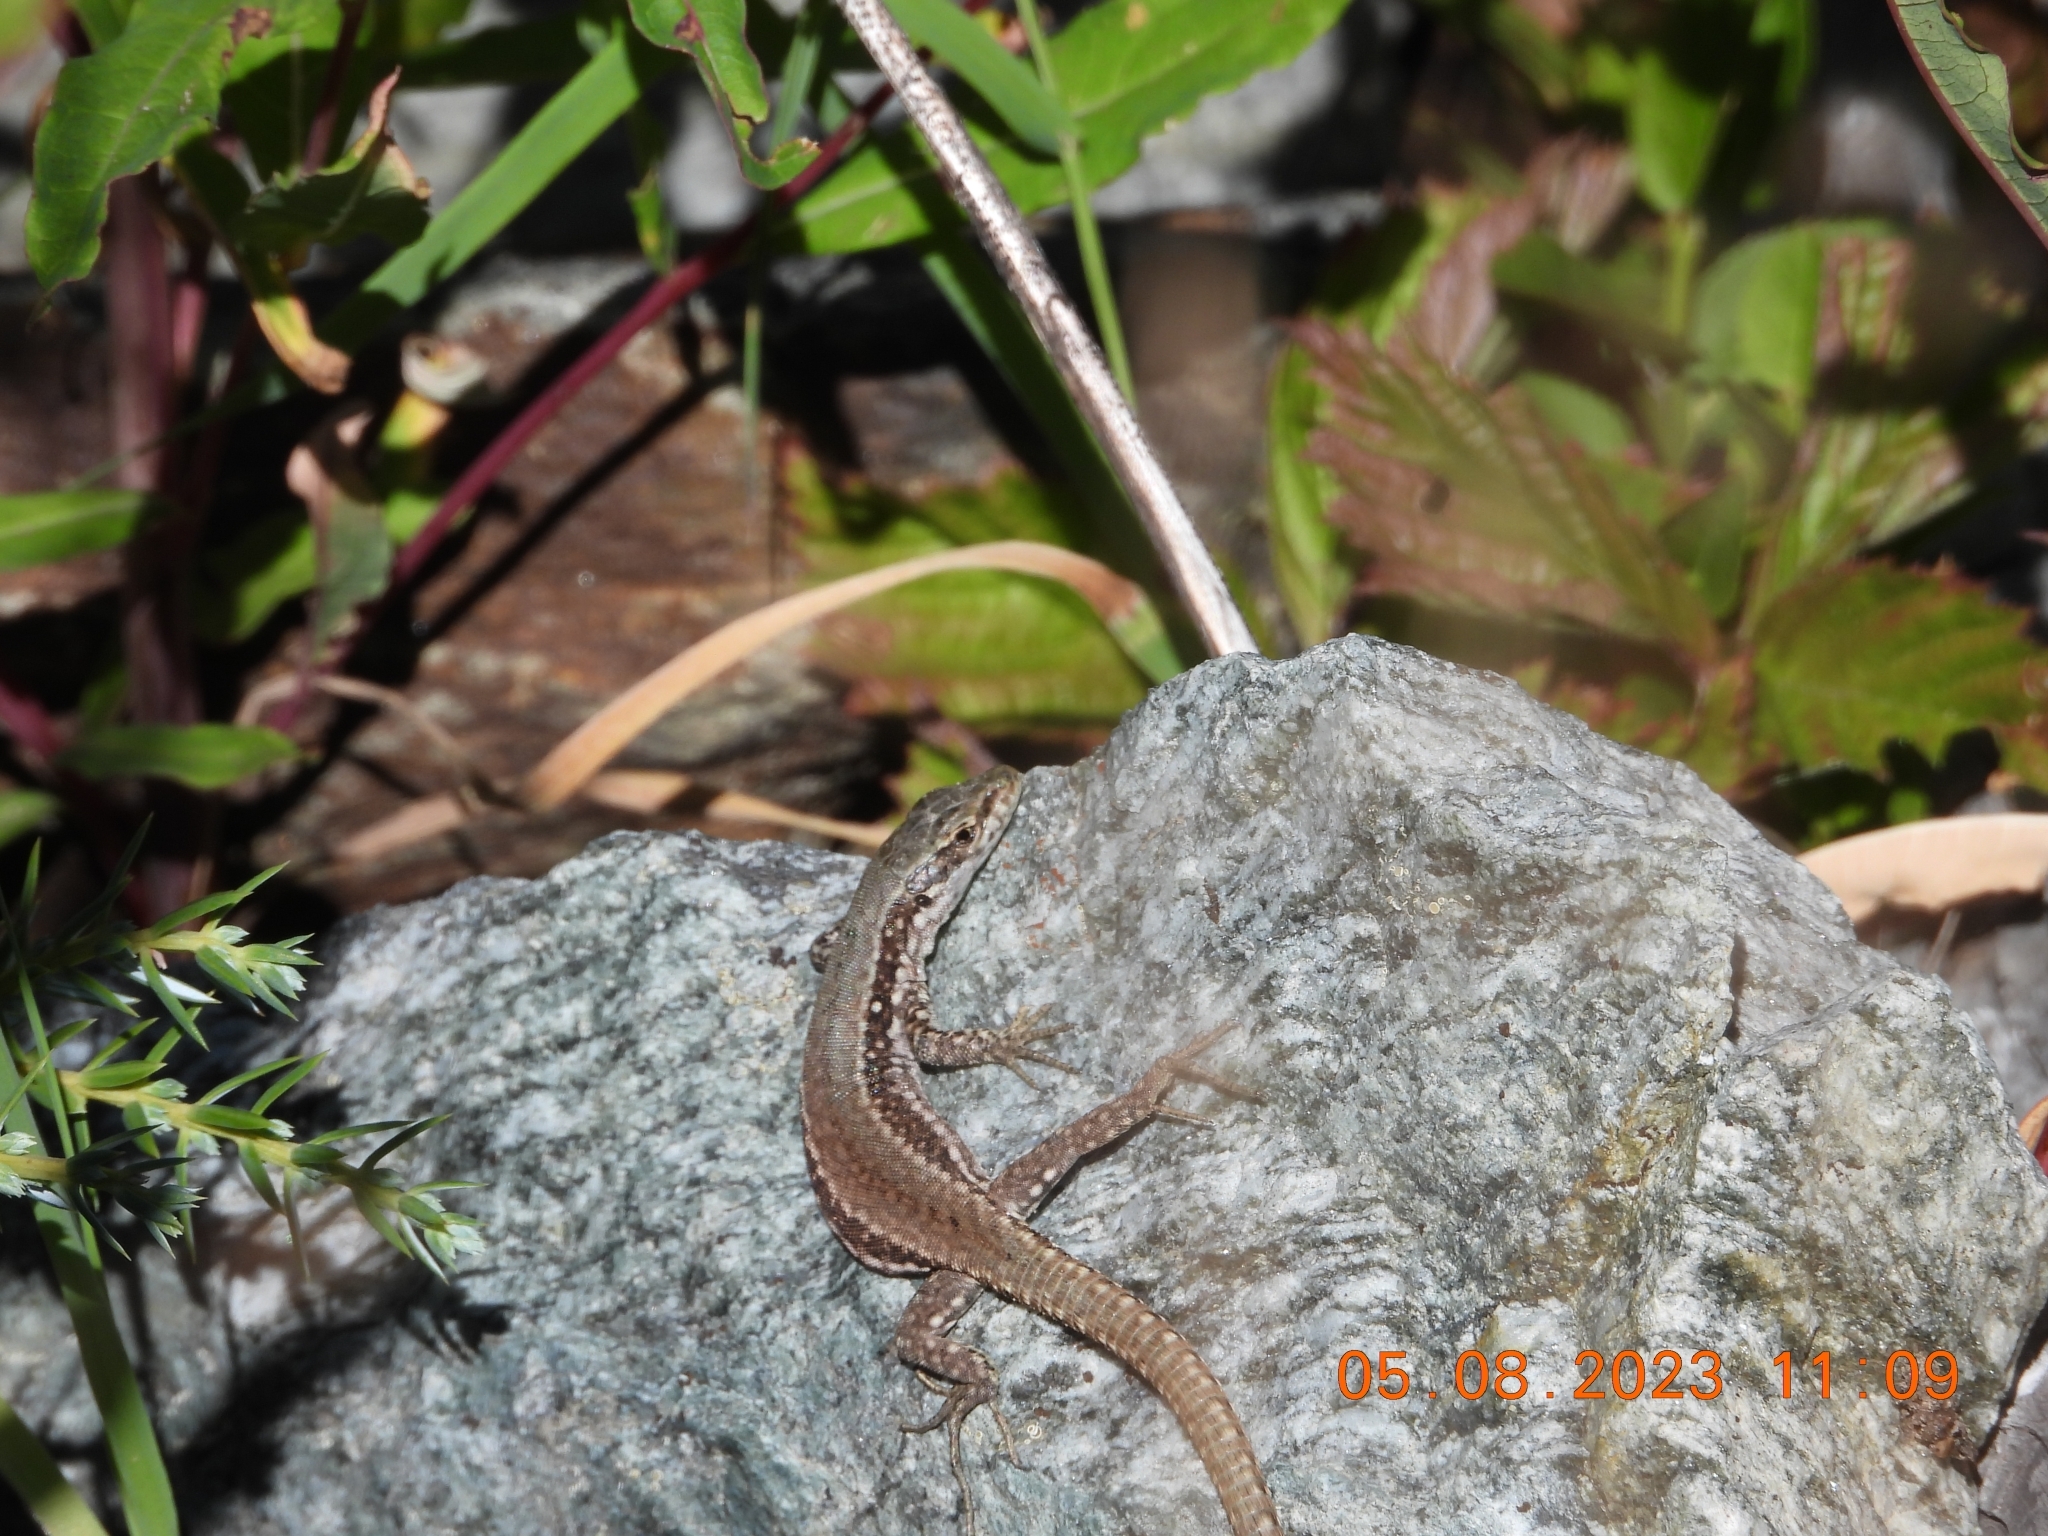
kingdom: Animalia
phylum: Chordata
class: Squamata
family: Lacertidae
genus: Podarcis
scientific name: Podarcis muralis
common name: Common wall lizard
